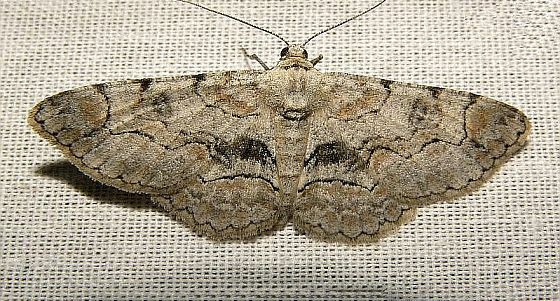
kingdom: Animalia
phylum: Arthropoda
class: Insecta
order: Lepidoptera
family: Geometridae
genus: Iridopsis
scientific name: Iridopsis larvaria
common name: Bent-line gray
